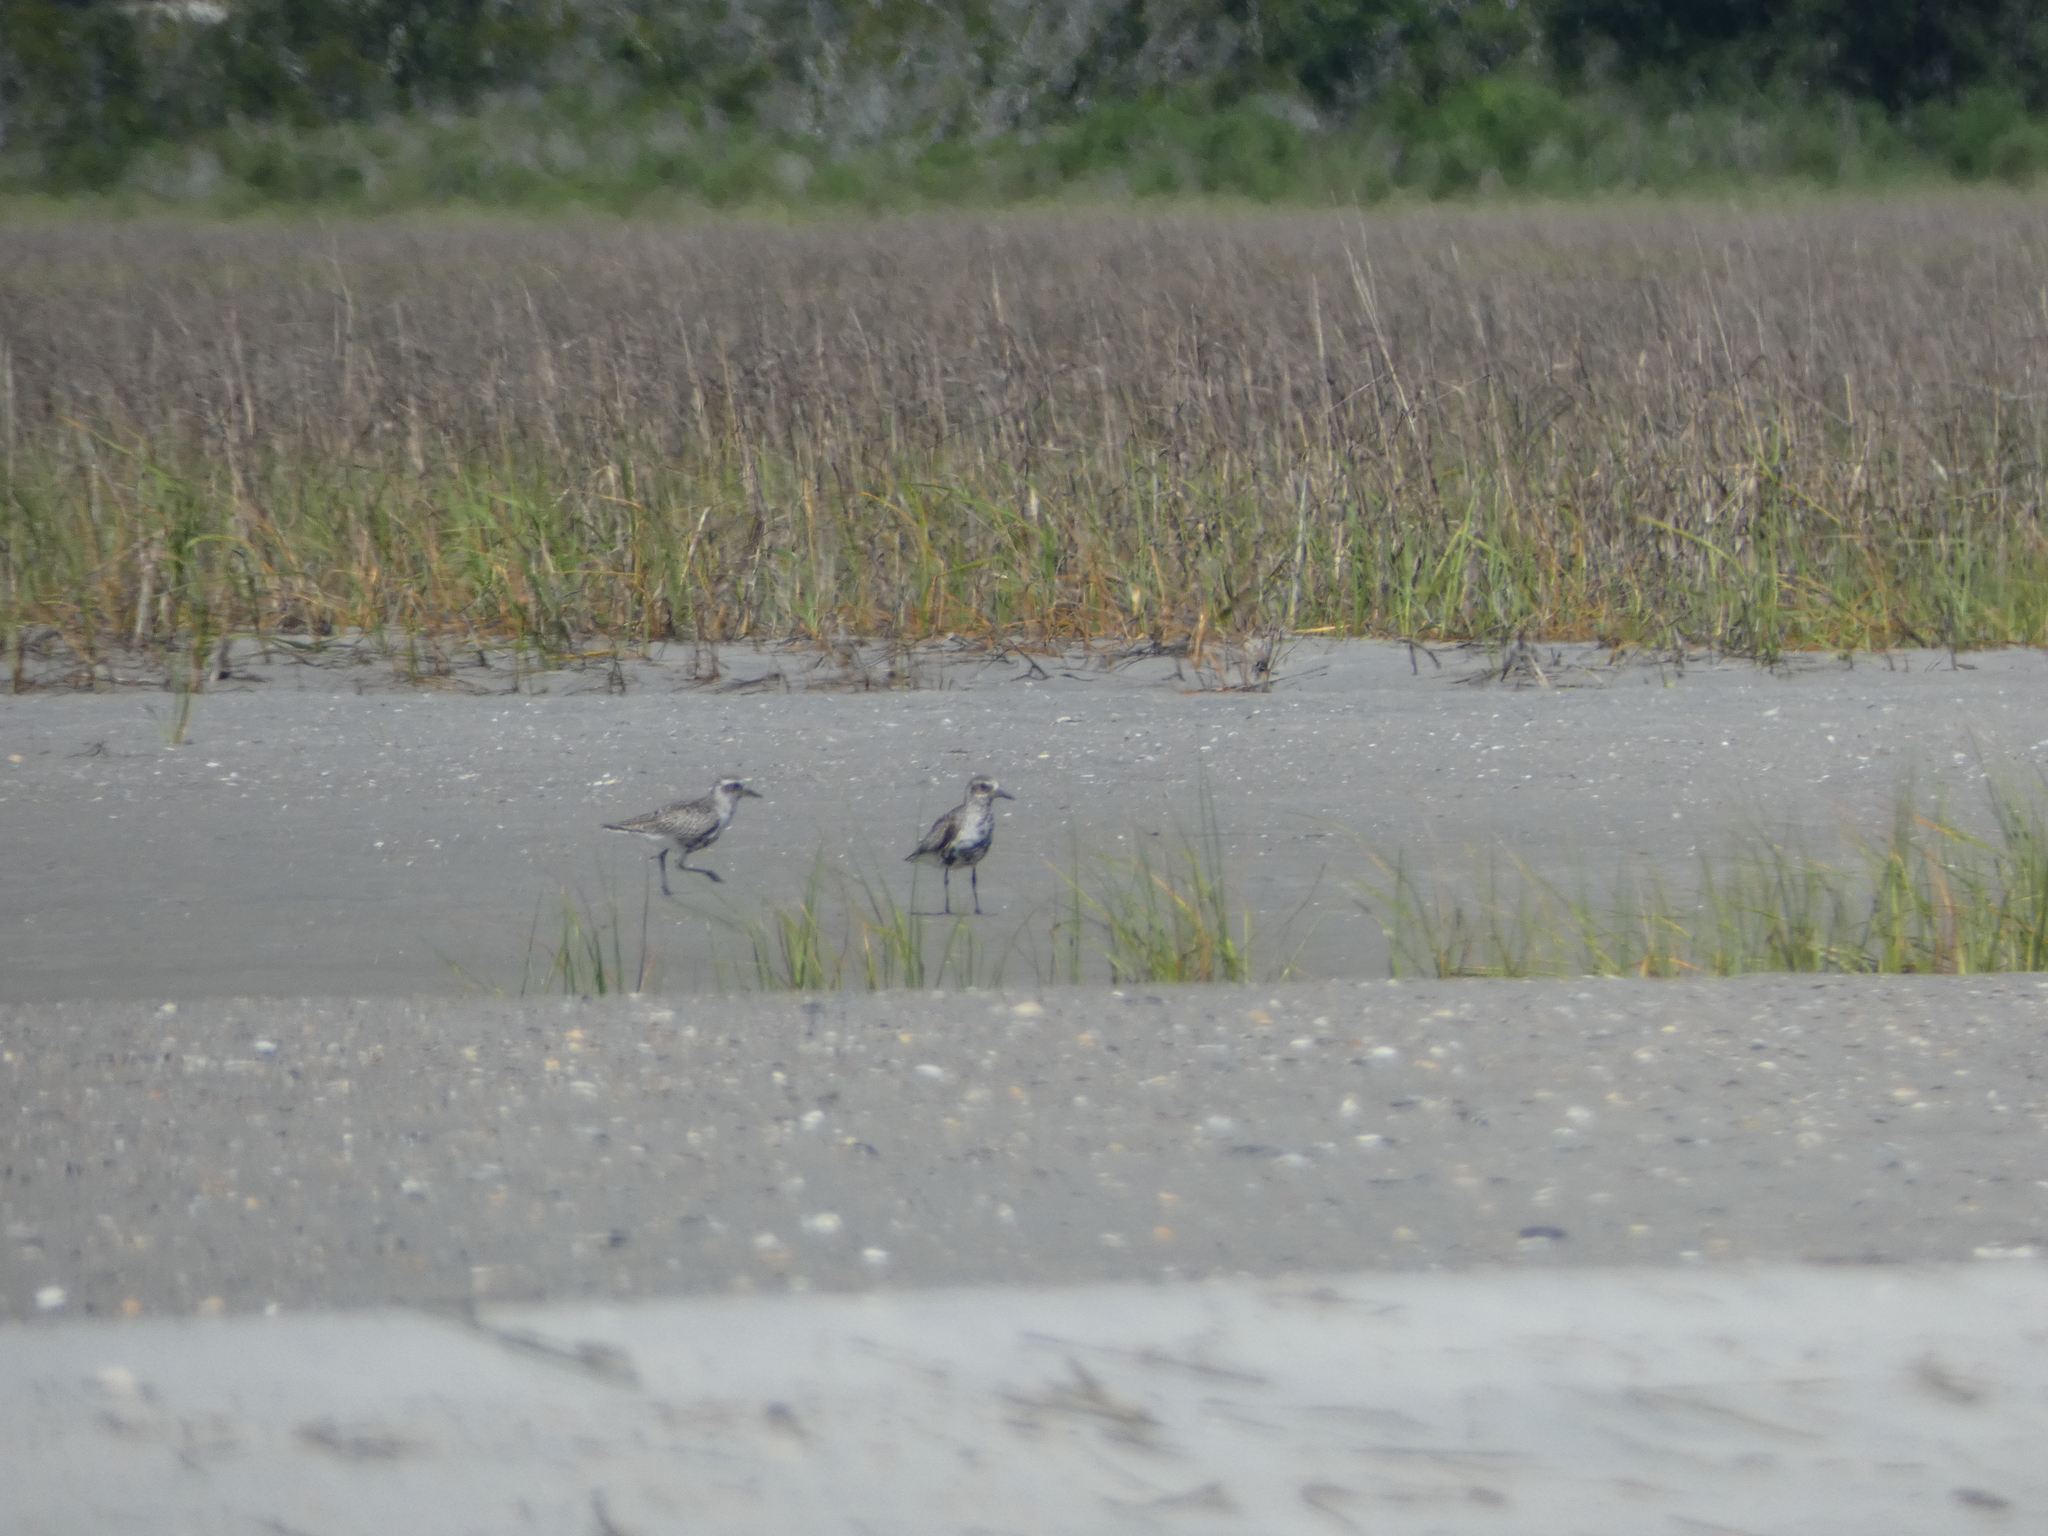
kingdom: Animalia
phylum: Chordata
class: Aves
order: Charadriiformes
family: Charadriidae
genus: Pluvialis
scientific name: Pluvialis squatarola
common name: Grey plover
